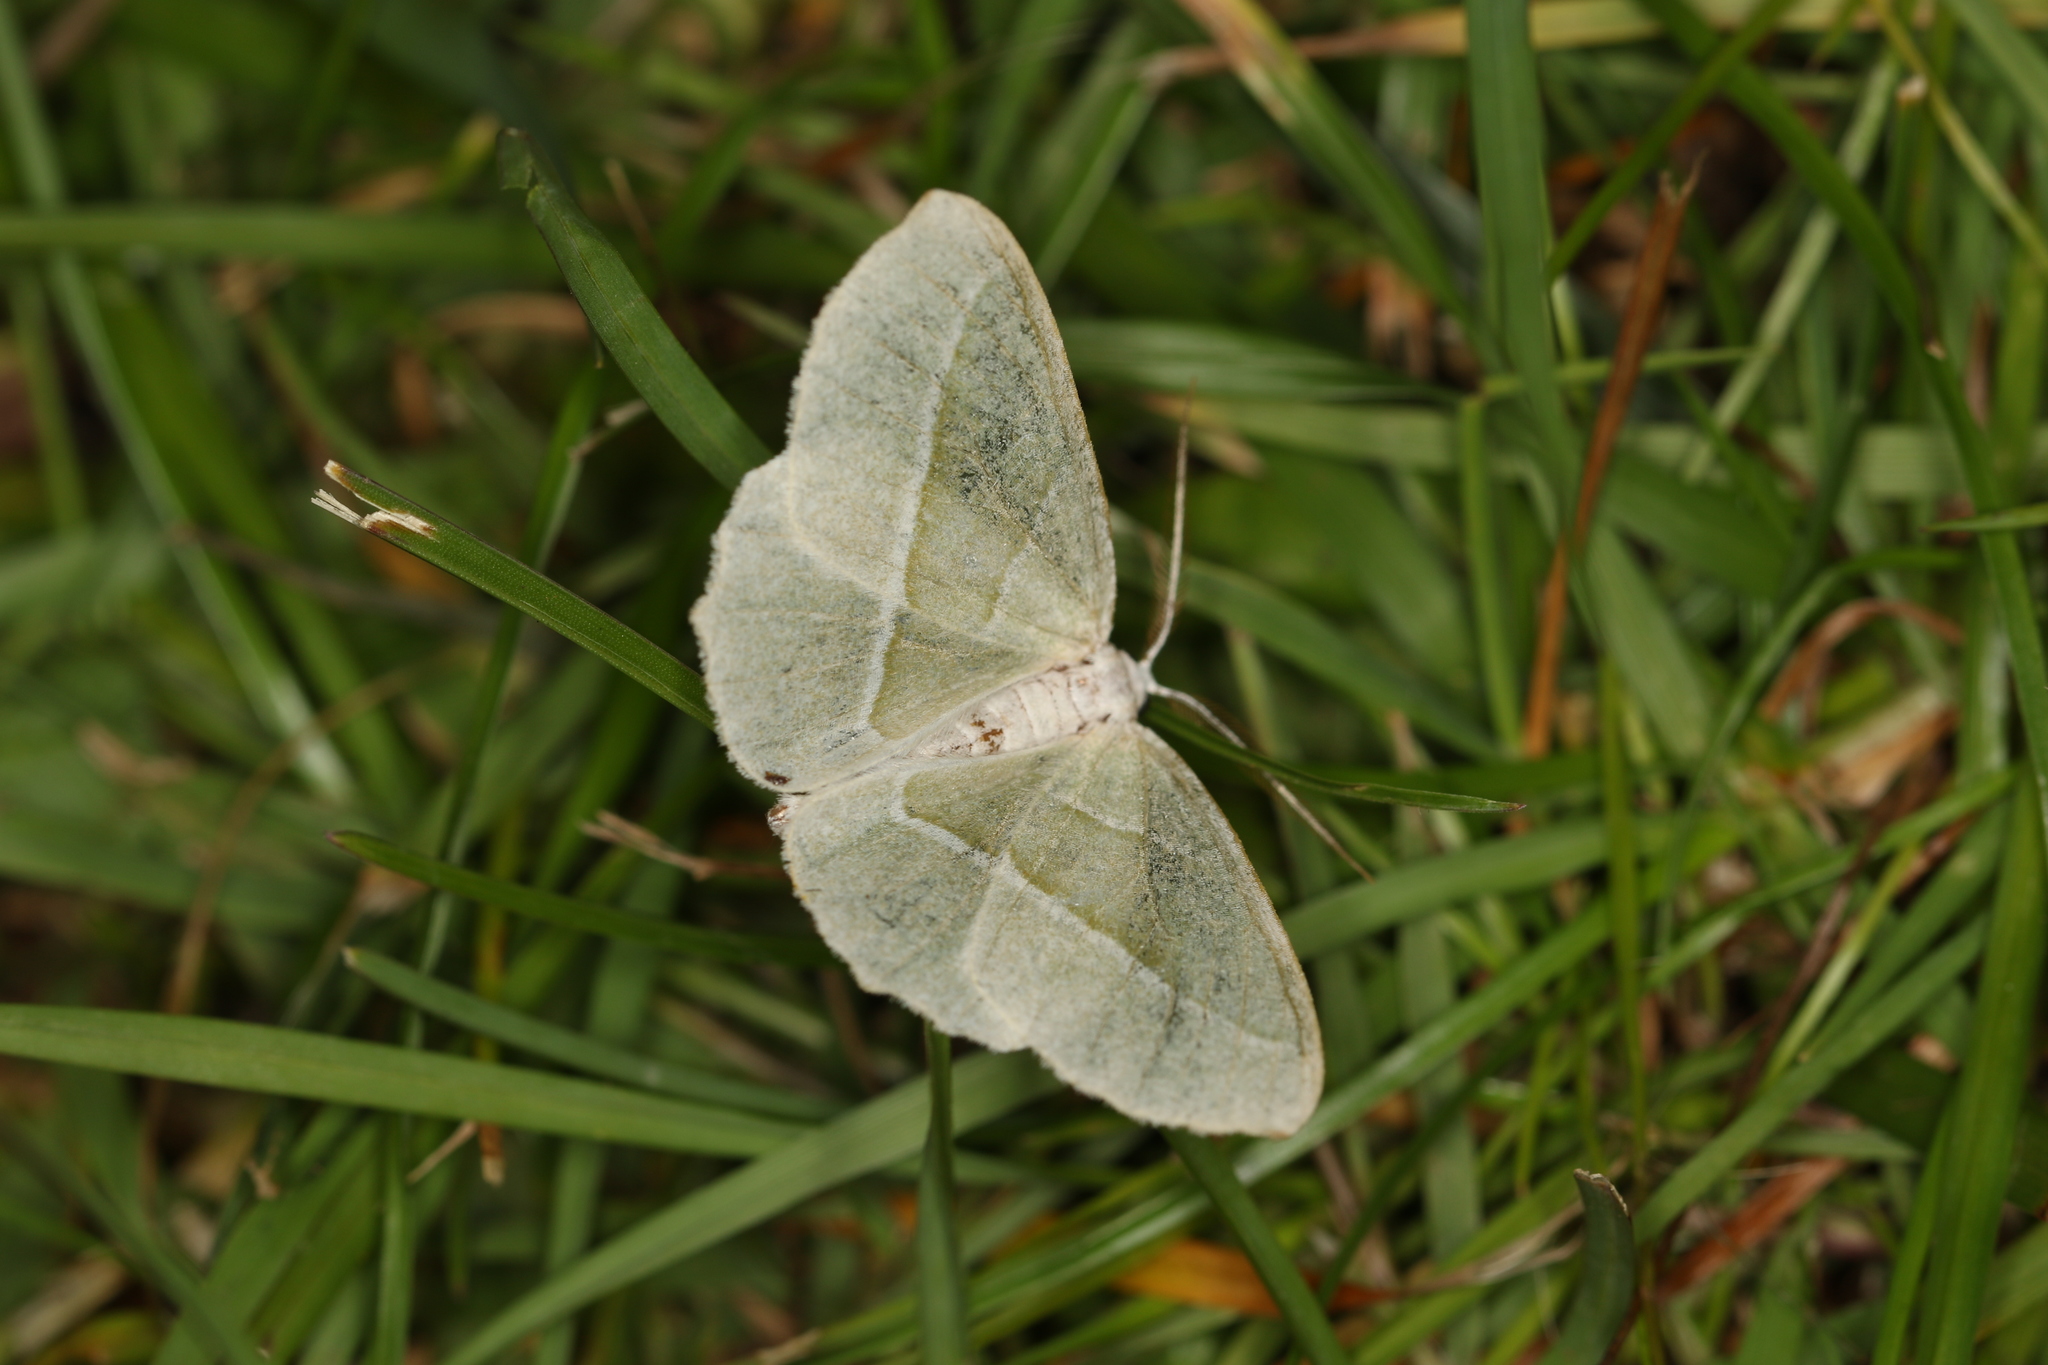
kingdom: Animalia
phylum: Arthropoda
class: Insecta
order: Lepidoptera
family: Geometridae
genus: Campaea
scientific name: Campaea margaritaria
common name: Light emerald
